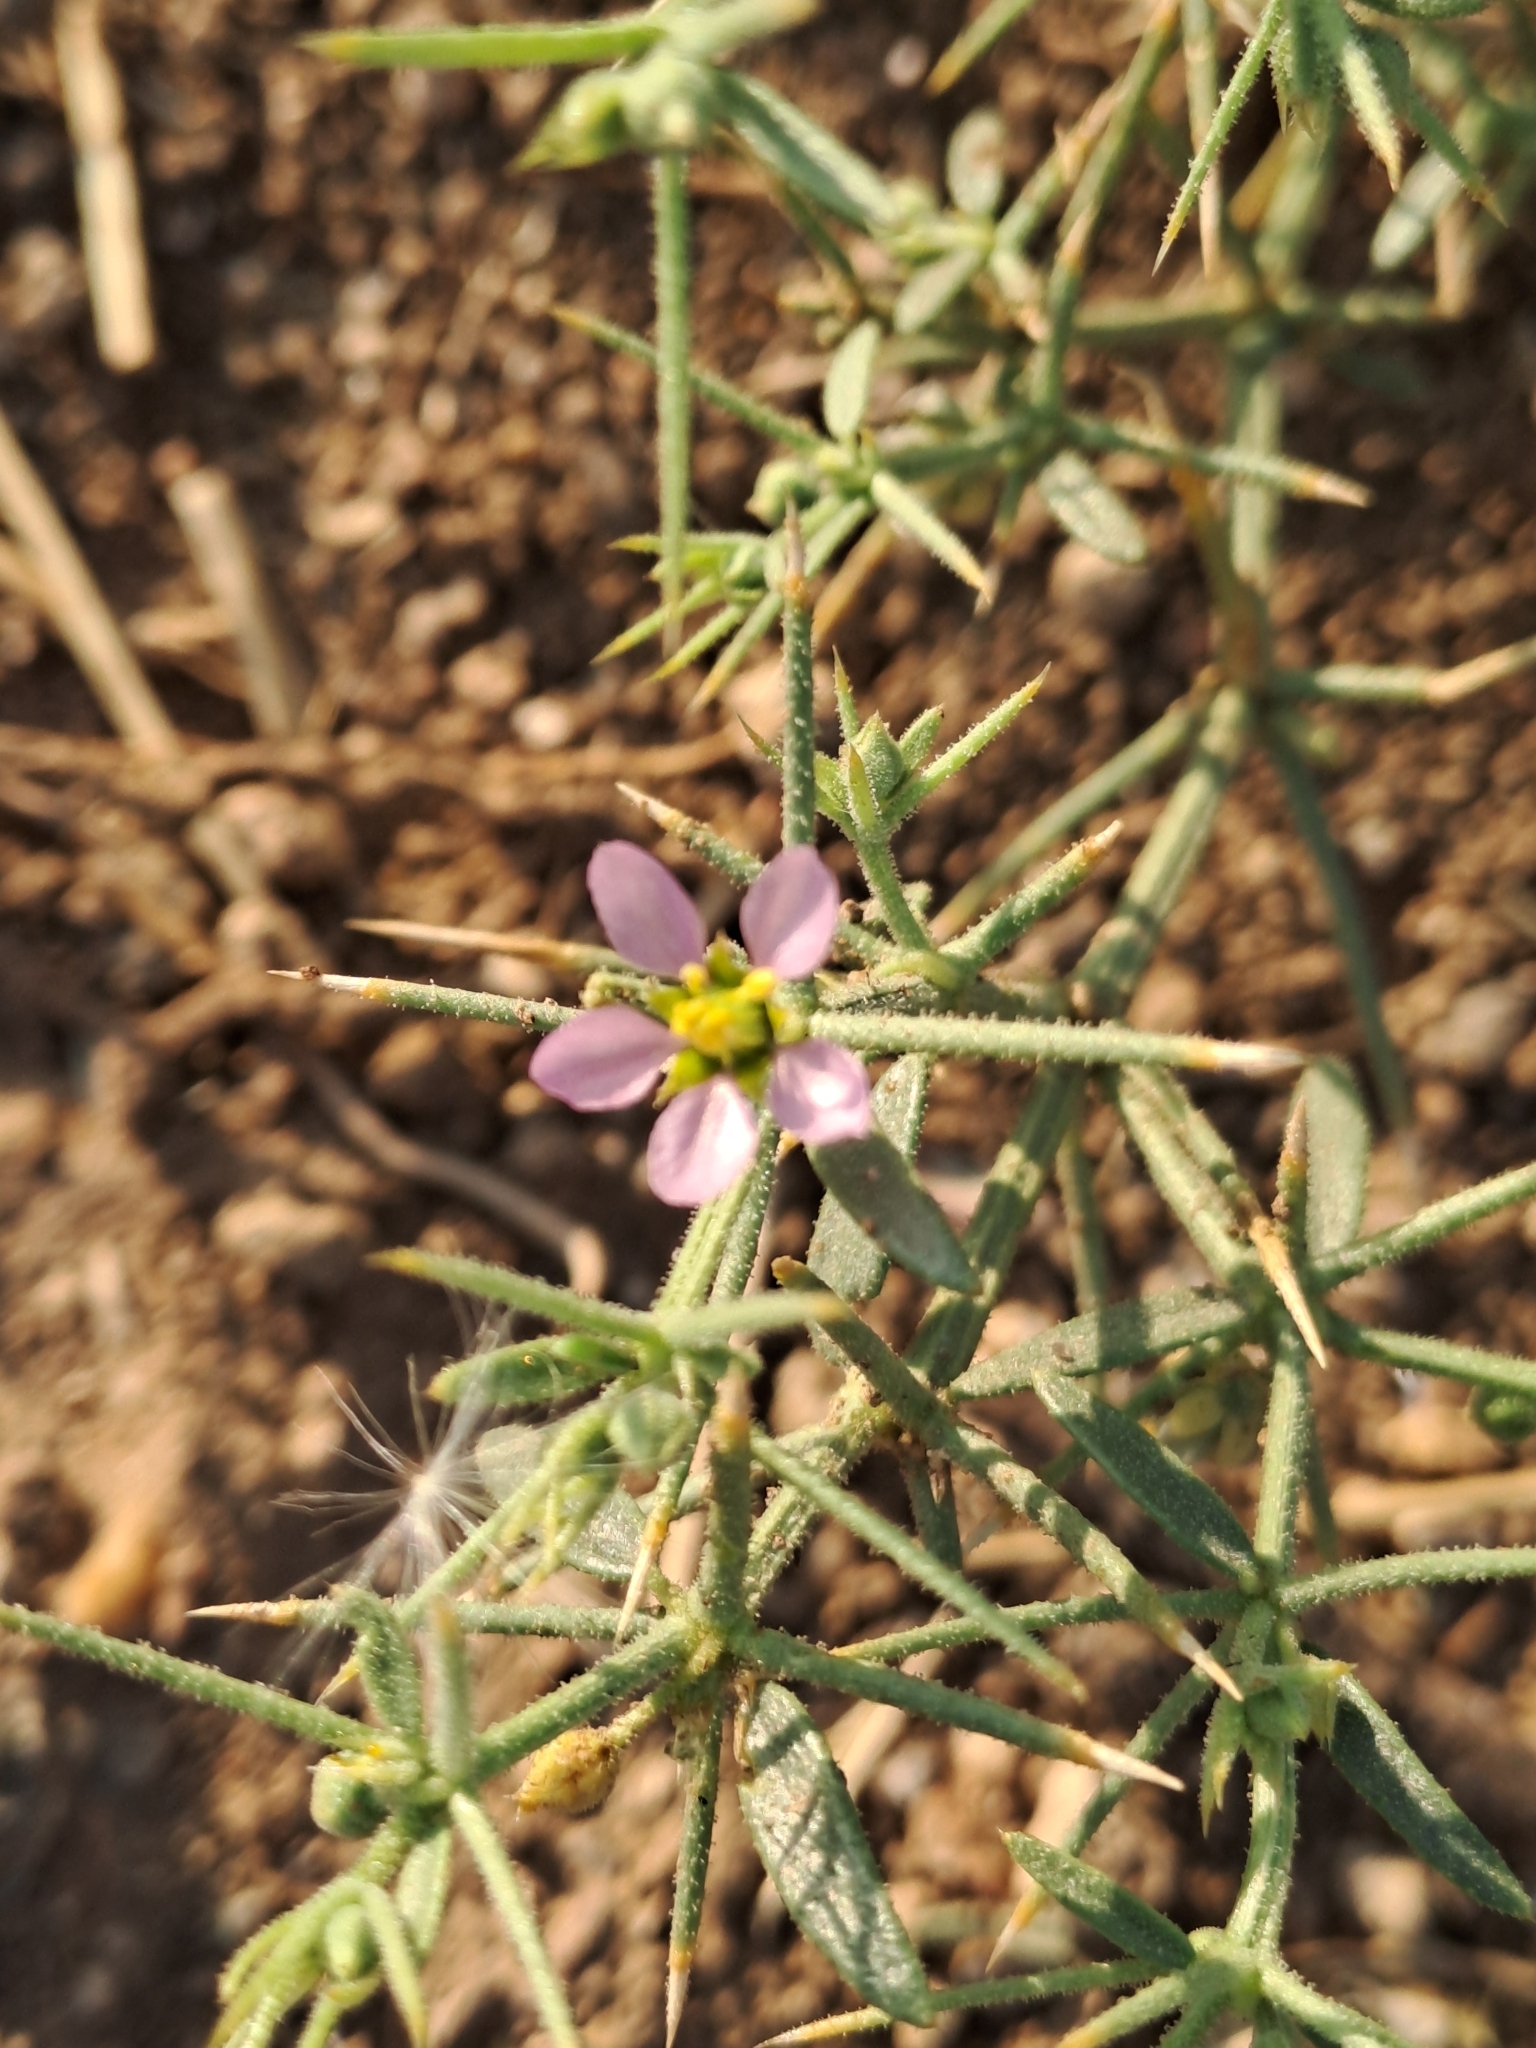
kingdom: Plantae
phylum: Tracheophyta
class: Magnoliopsida
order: Zygophyllales
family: Zygophyllaceae
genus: Fagonia
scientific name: Fagonia indica
